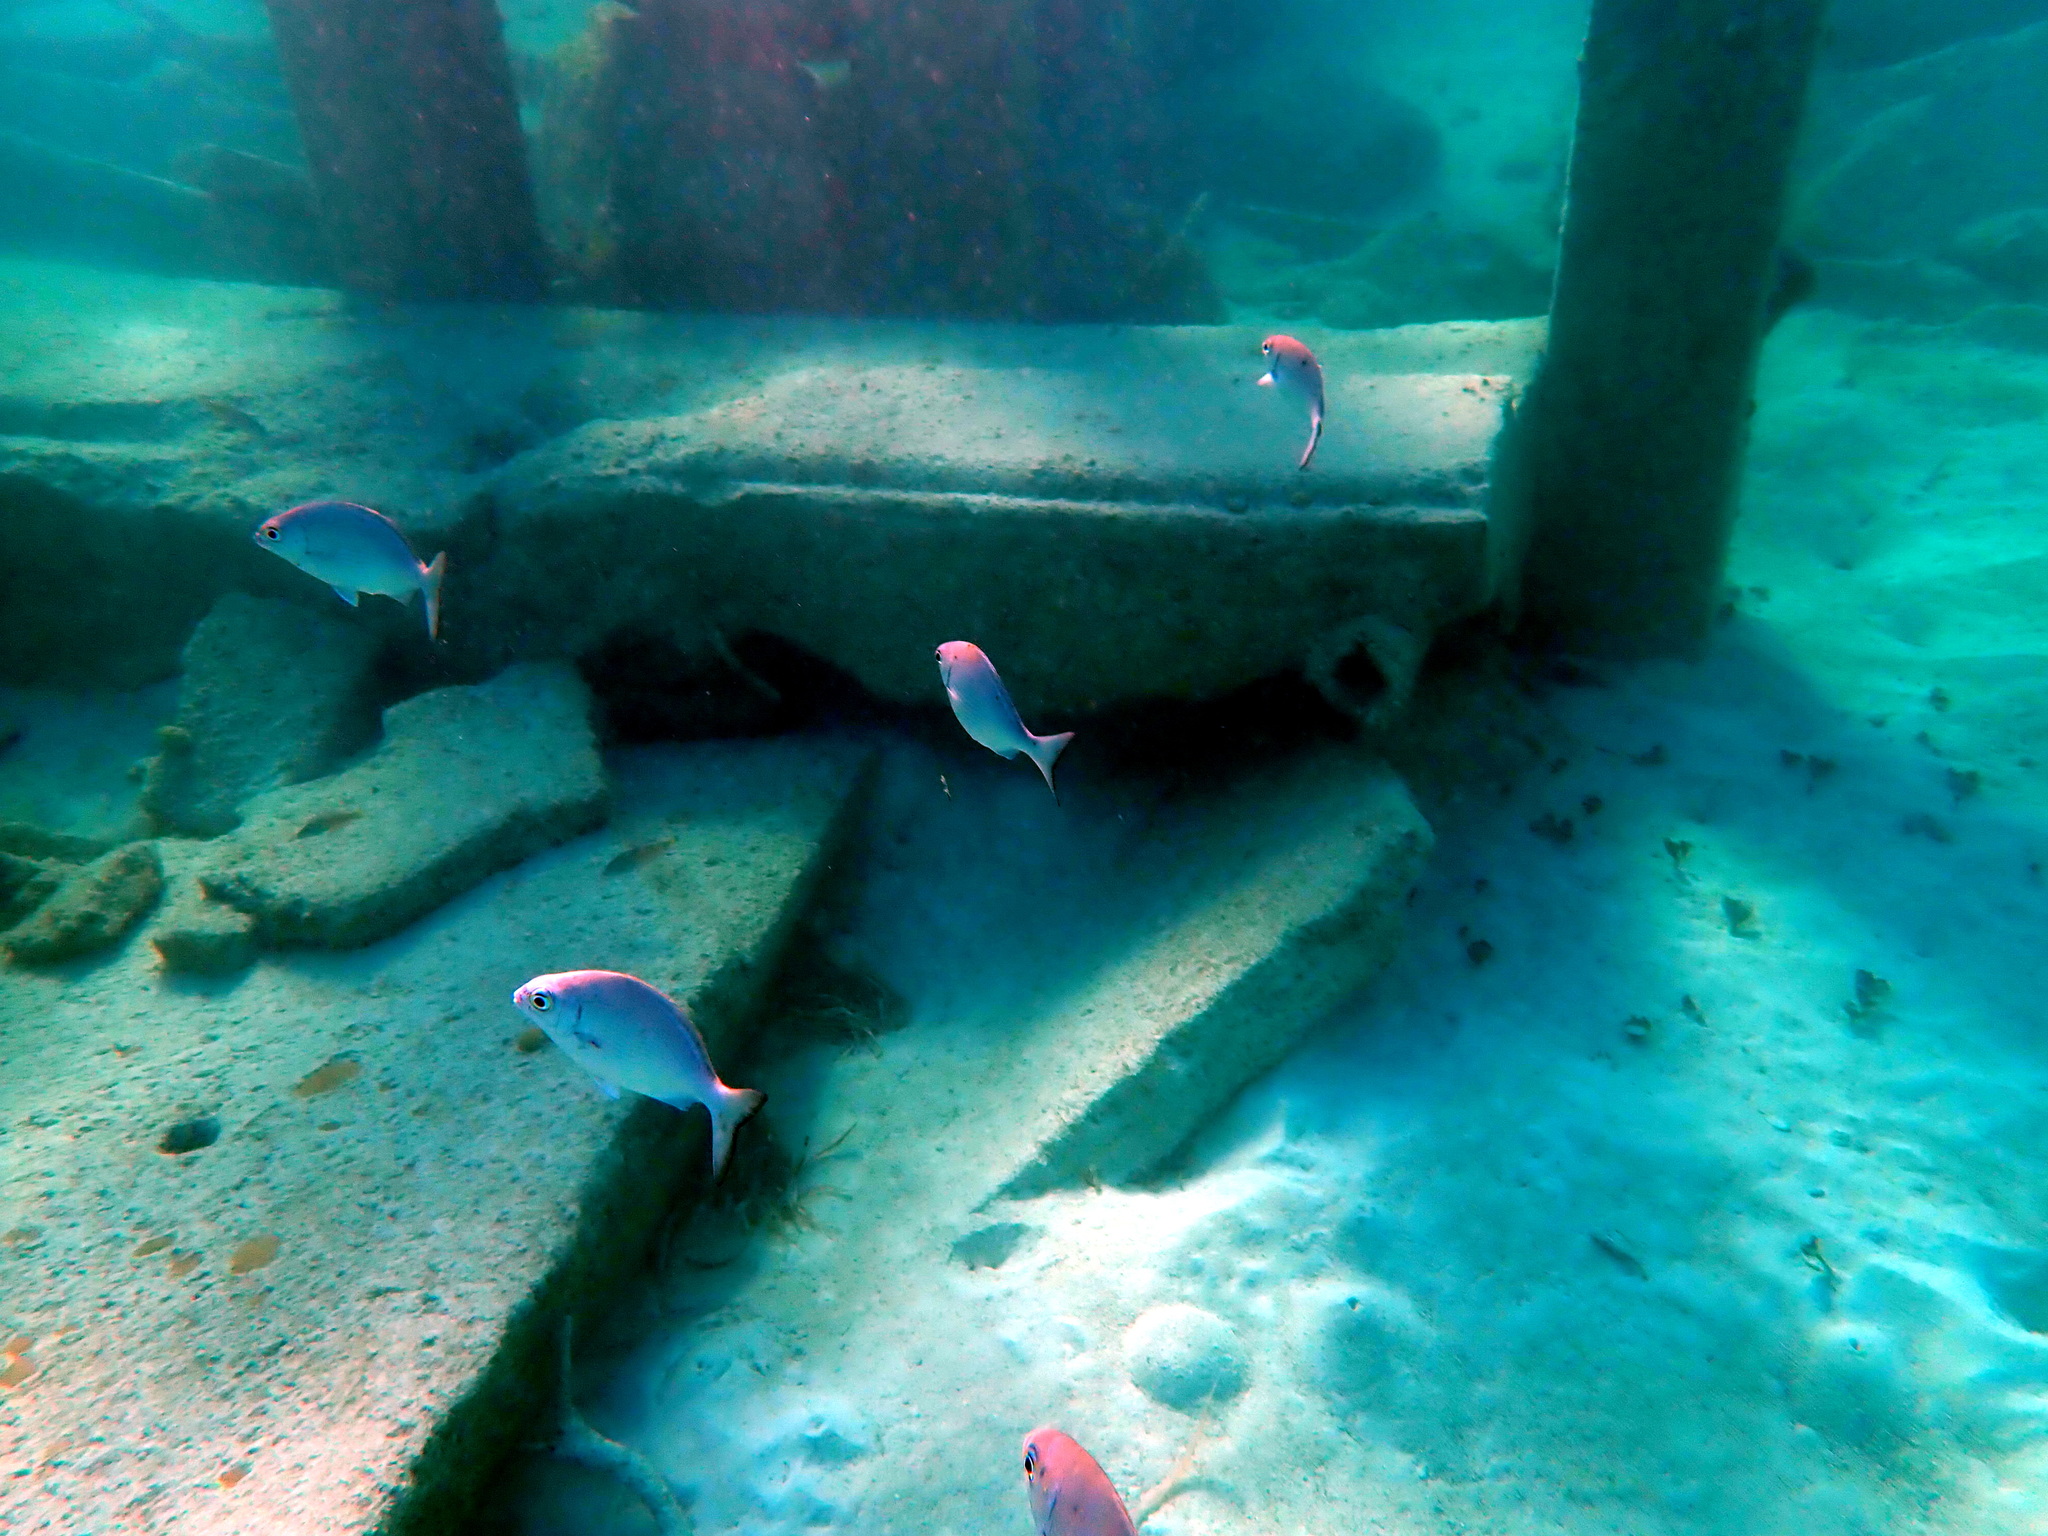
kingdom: Animalia
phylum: Chordata
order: Perciformes
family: Kyphosidae
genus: Kyphosus
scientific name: Kyphosus sectatrix
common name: Bermuda chub
